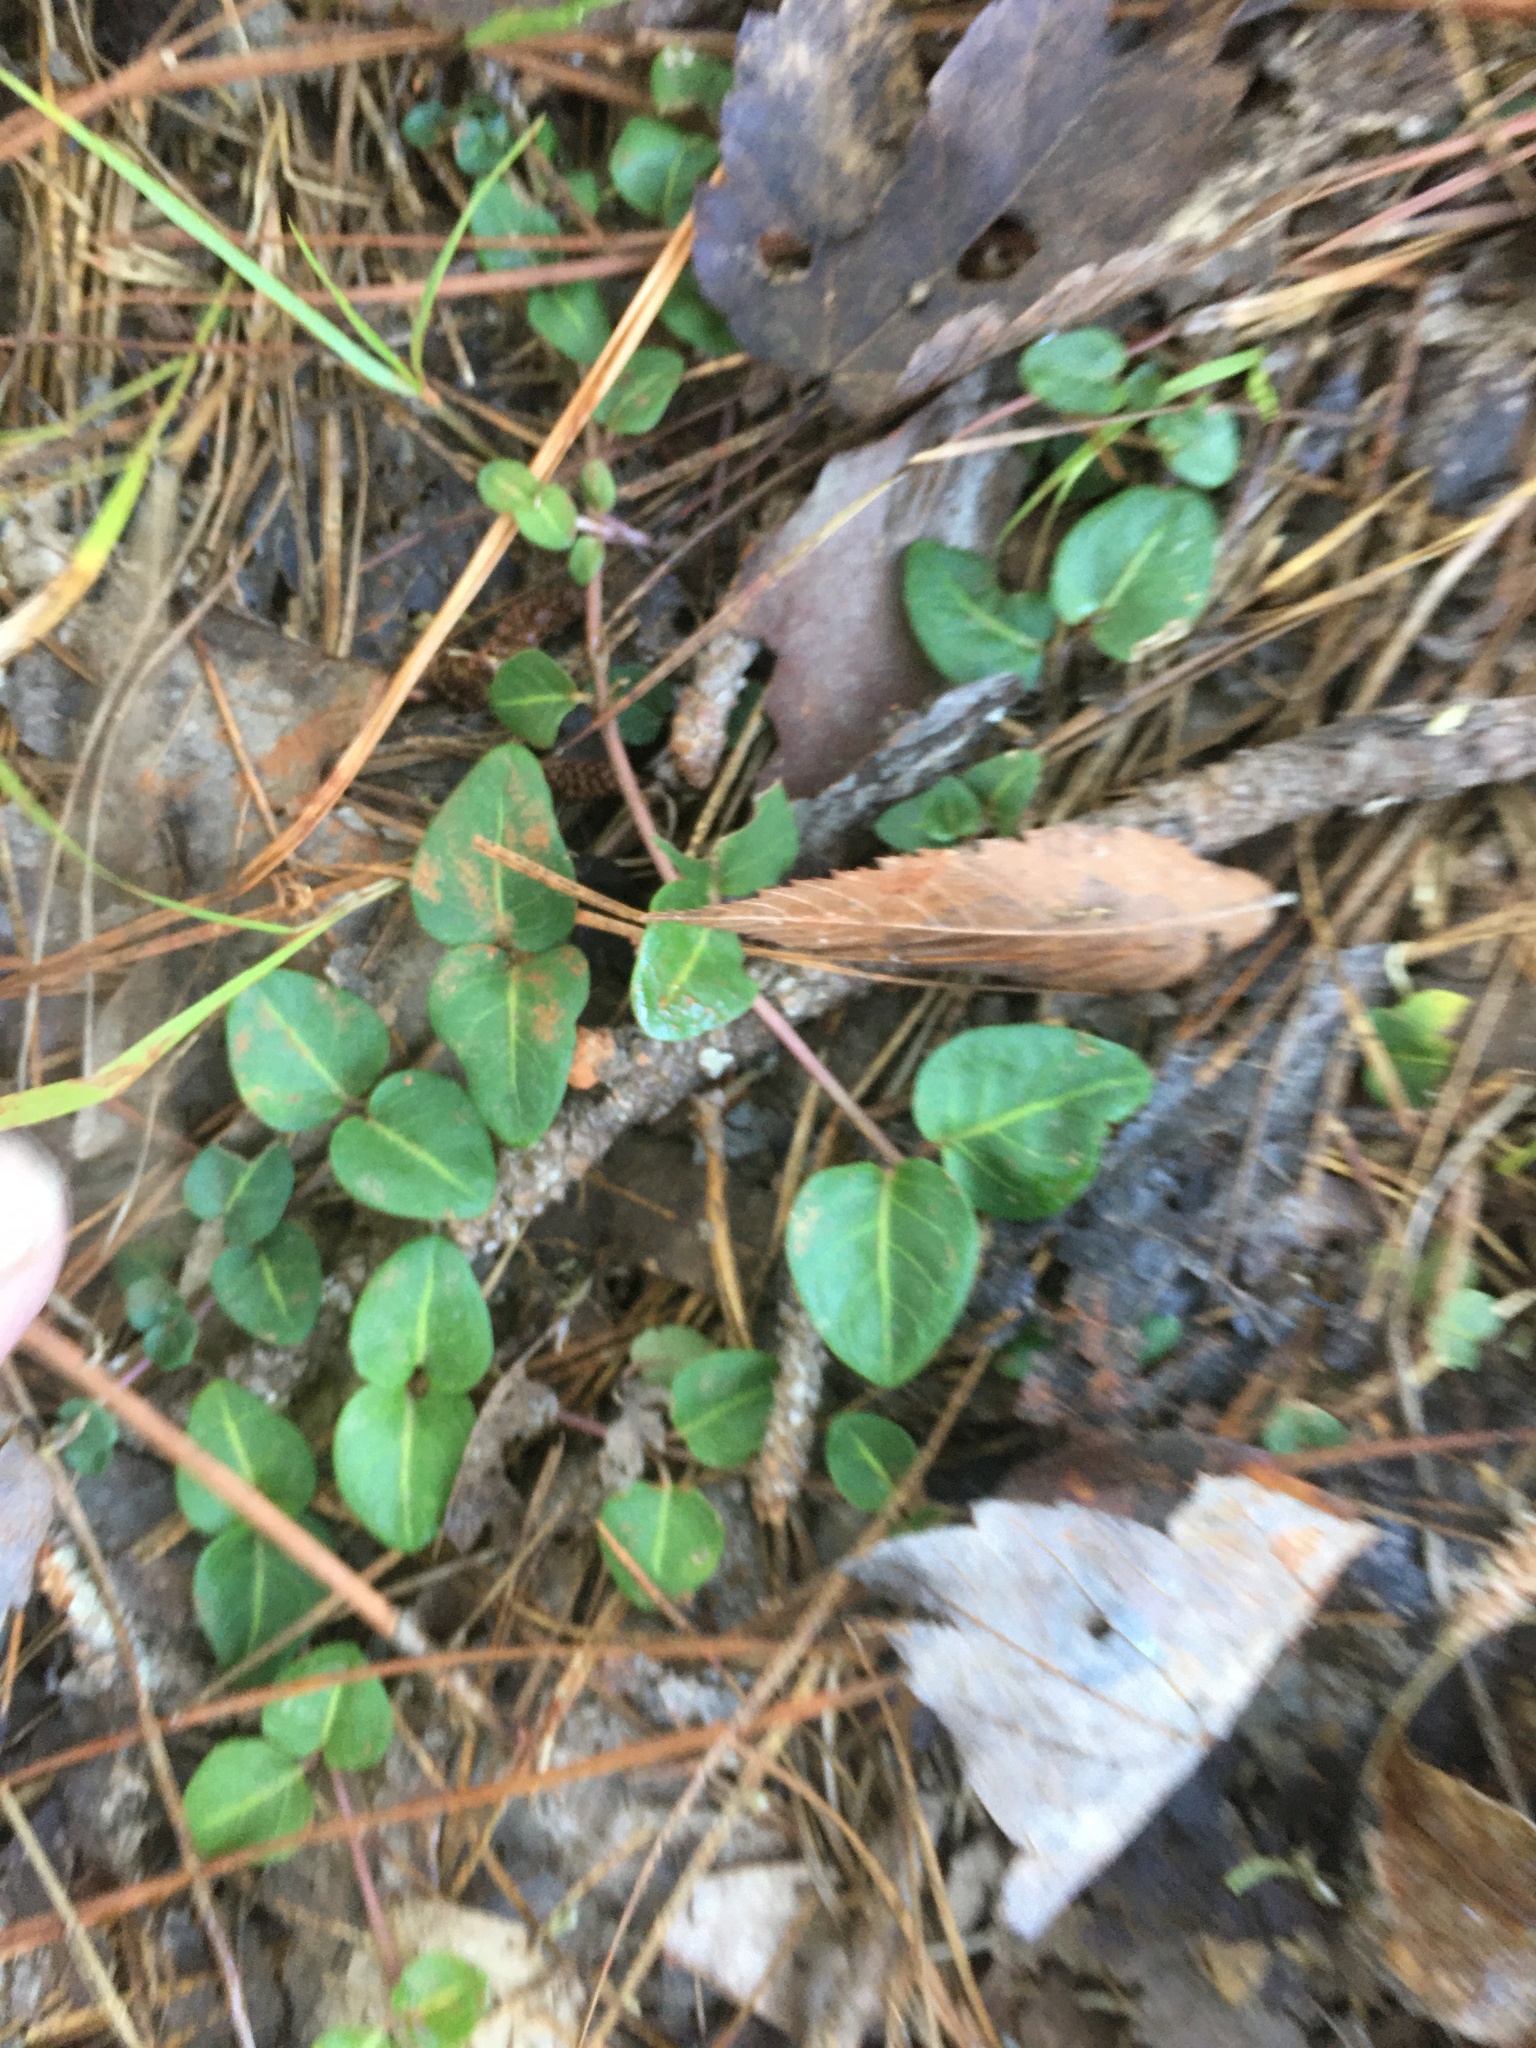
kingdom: Plantae
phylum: Tracheophyta
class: Magnoliopsida
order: Gentianales
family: Rubiaceae
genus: Mitchella
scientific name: Mitchella repens
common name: Partridge-berry
